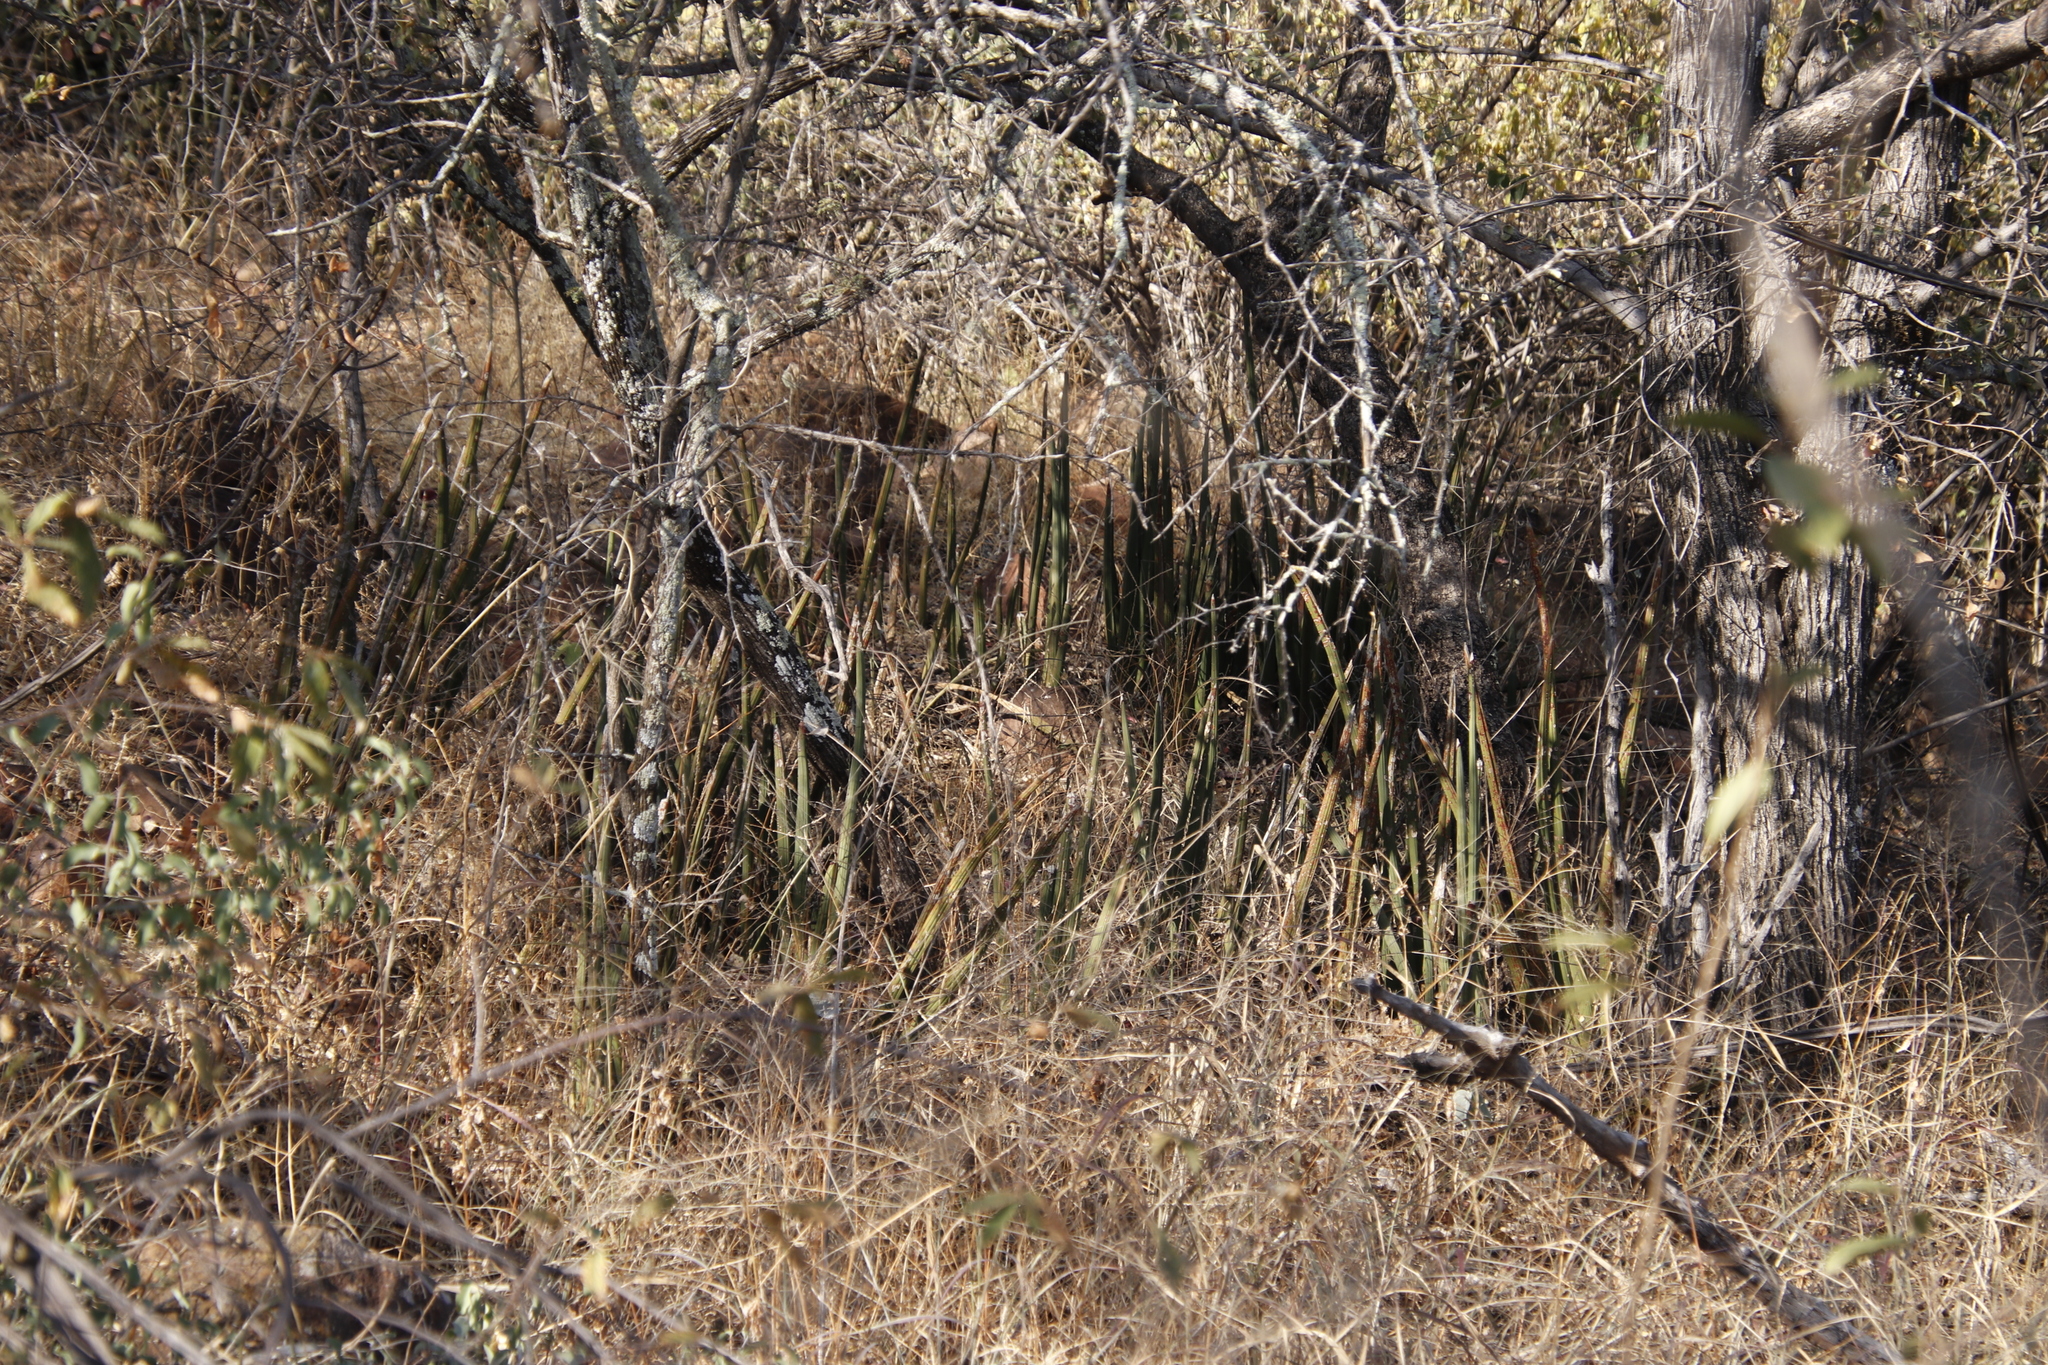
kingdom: Plantae
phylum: Tracheophyta
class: Liliopsida
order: Asparagales
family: Asparagaceae
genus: Dracaena
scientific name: Dracaena pearsonii
